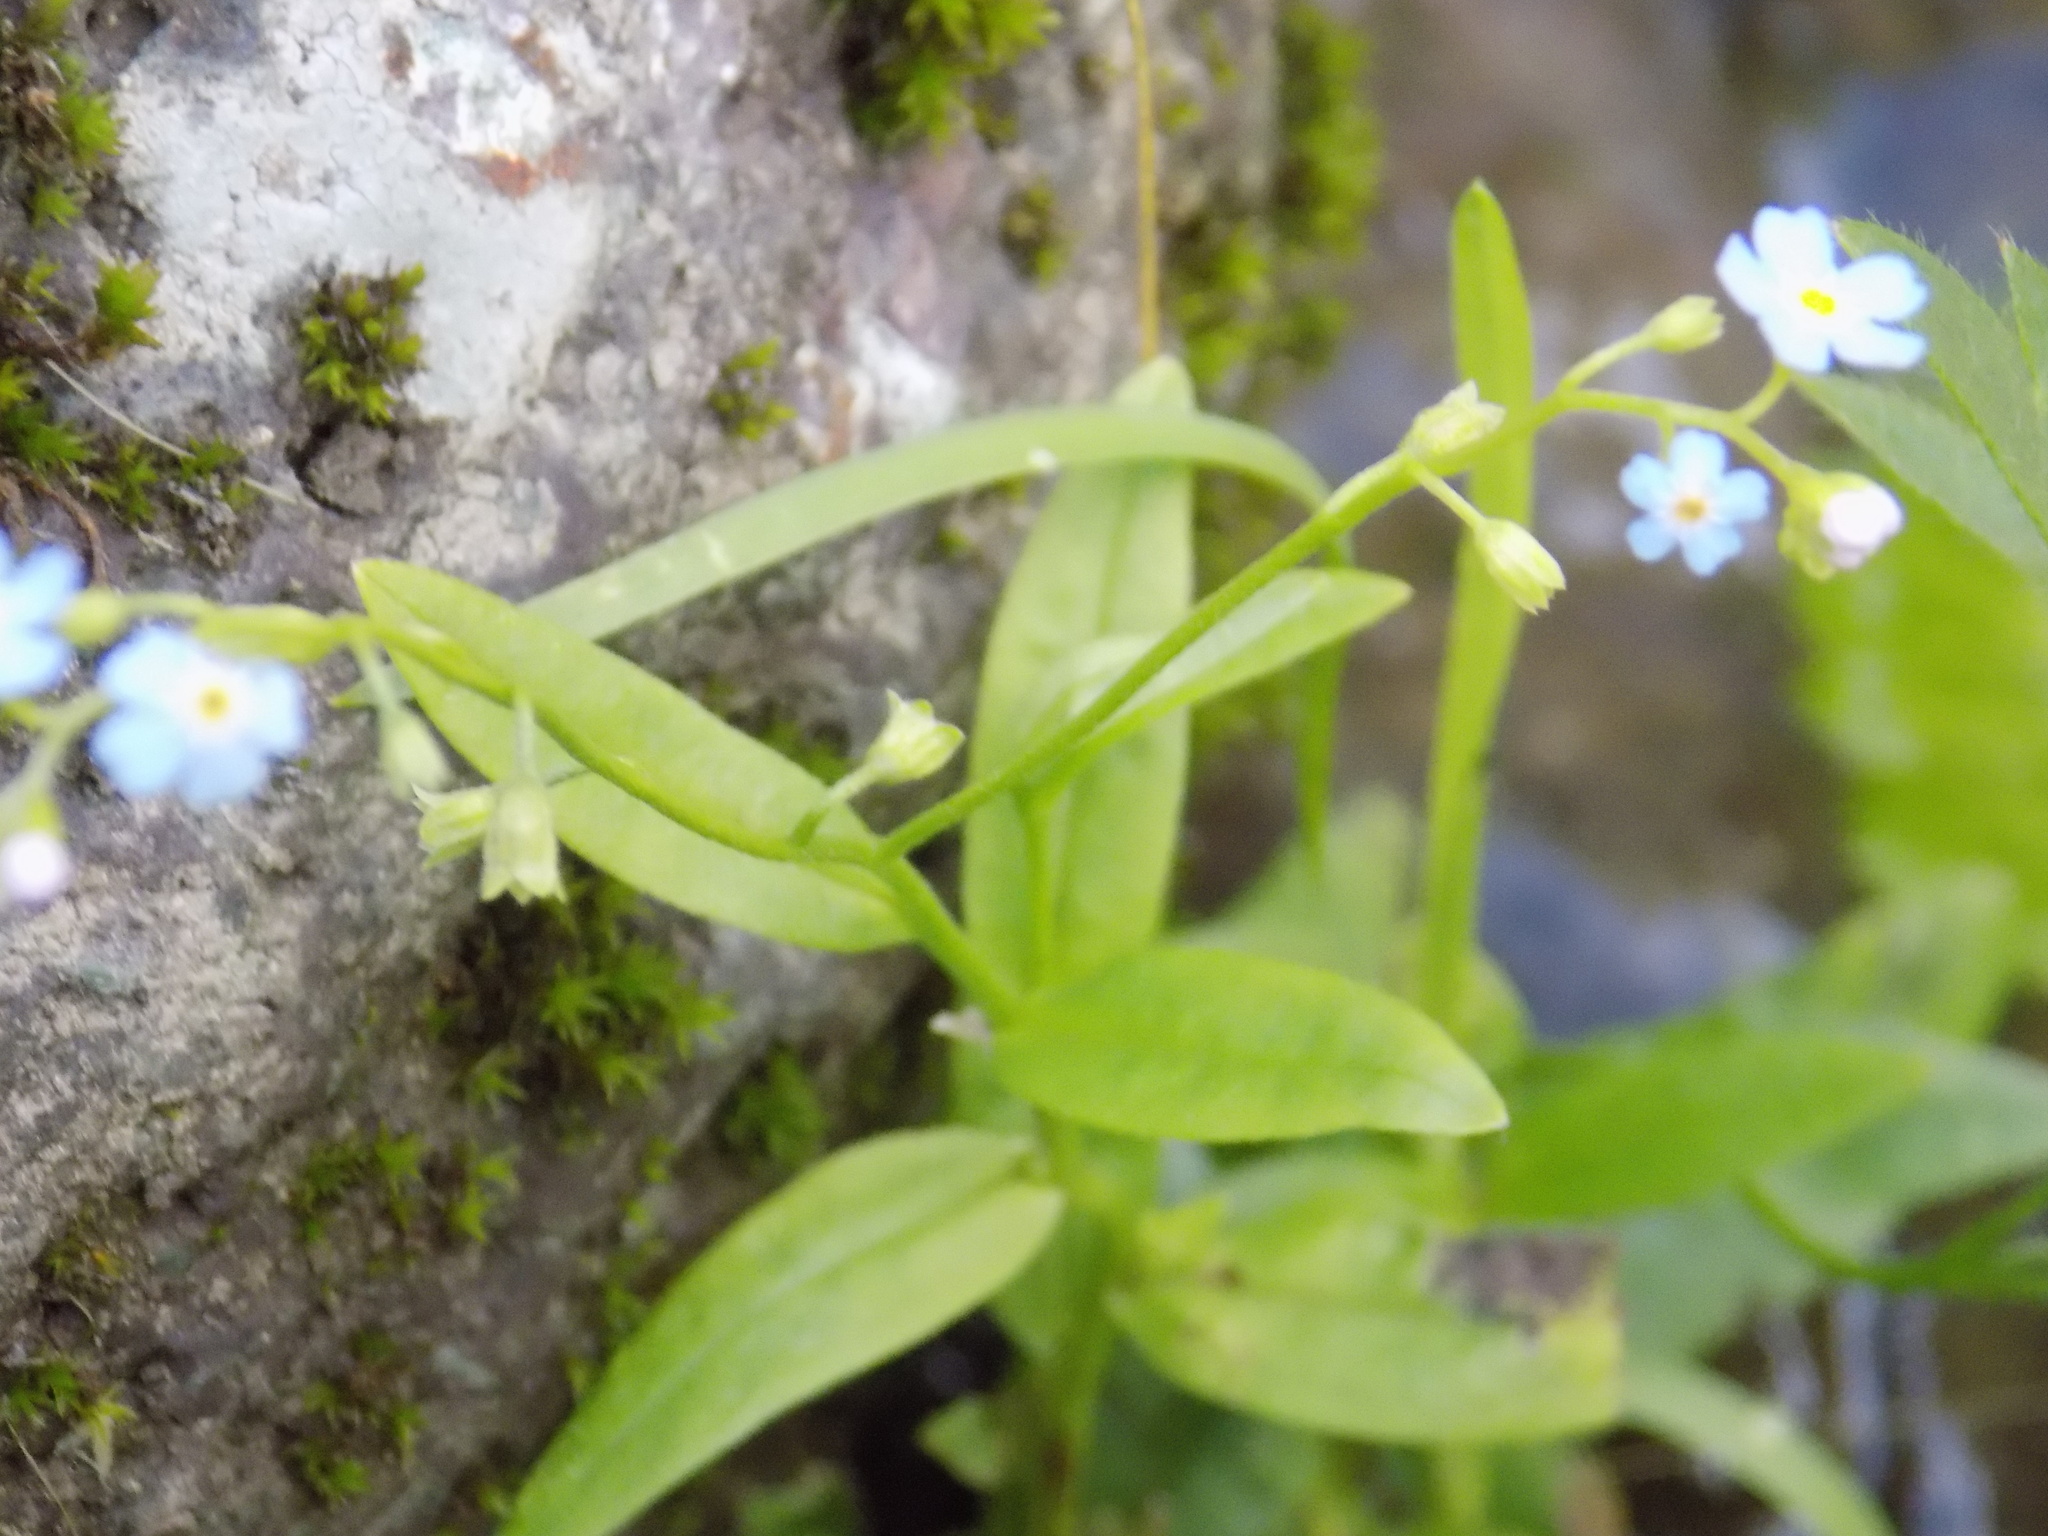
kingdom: Plantae
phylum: Tracheophyta
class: Magnoliopsida
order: Boraginales
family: Boraginaceae
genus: Myosotis
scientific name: Myosotis scorpioides
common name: Water forget-me-not
